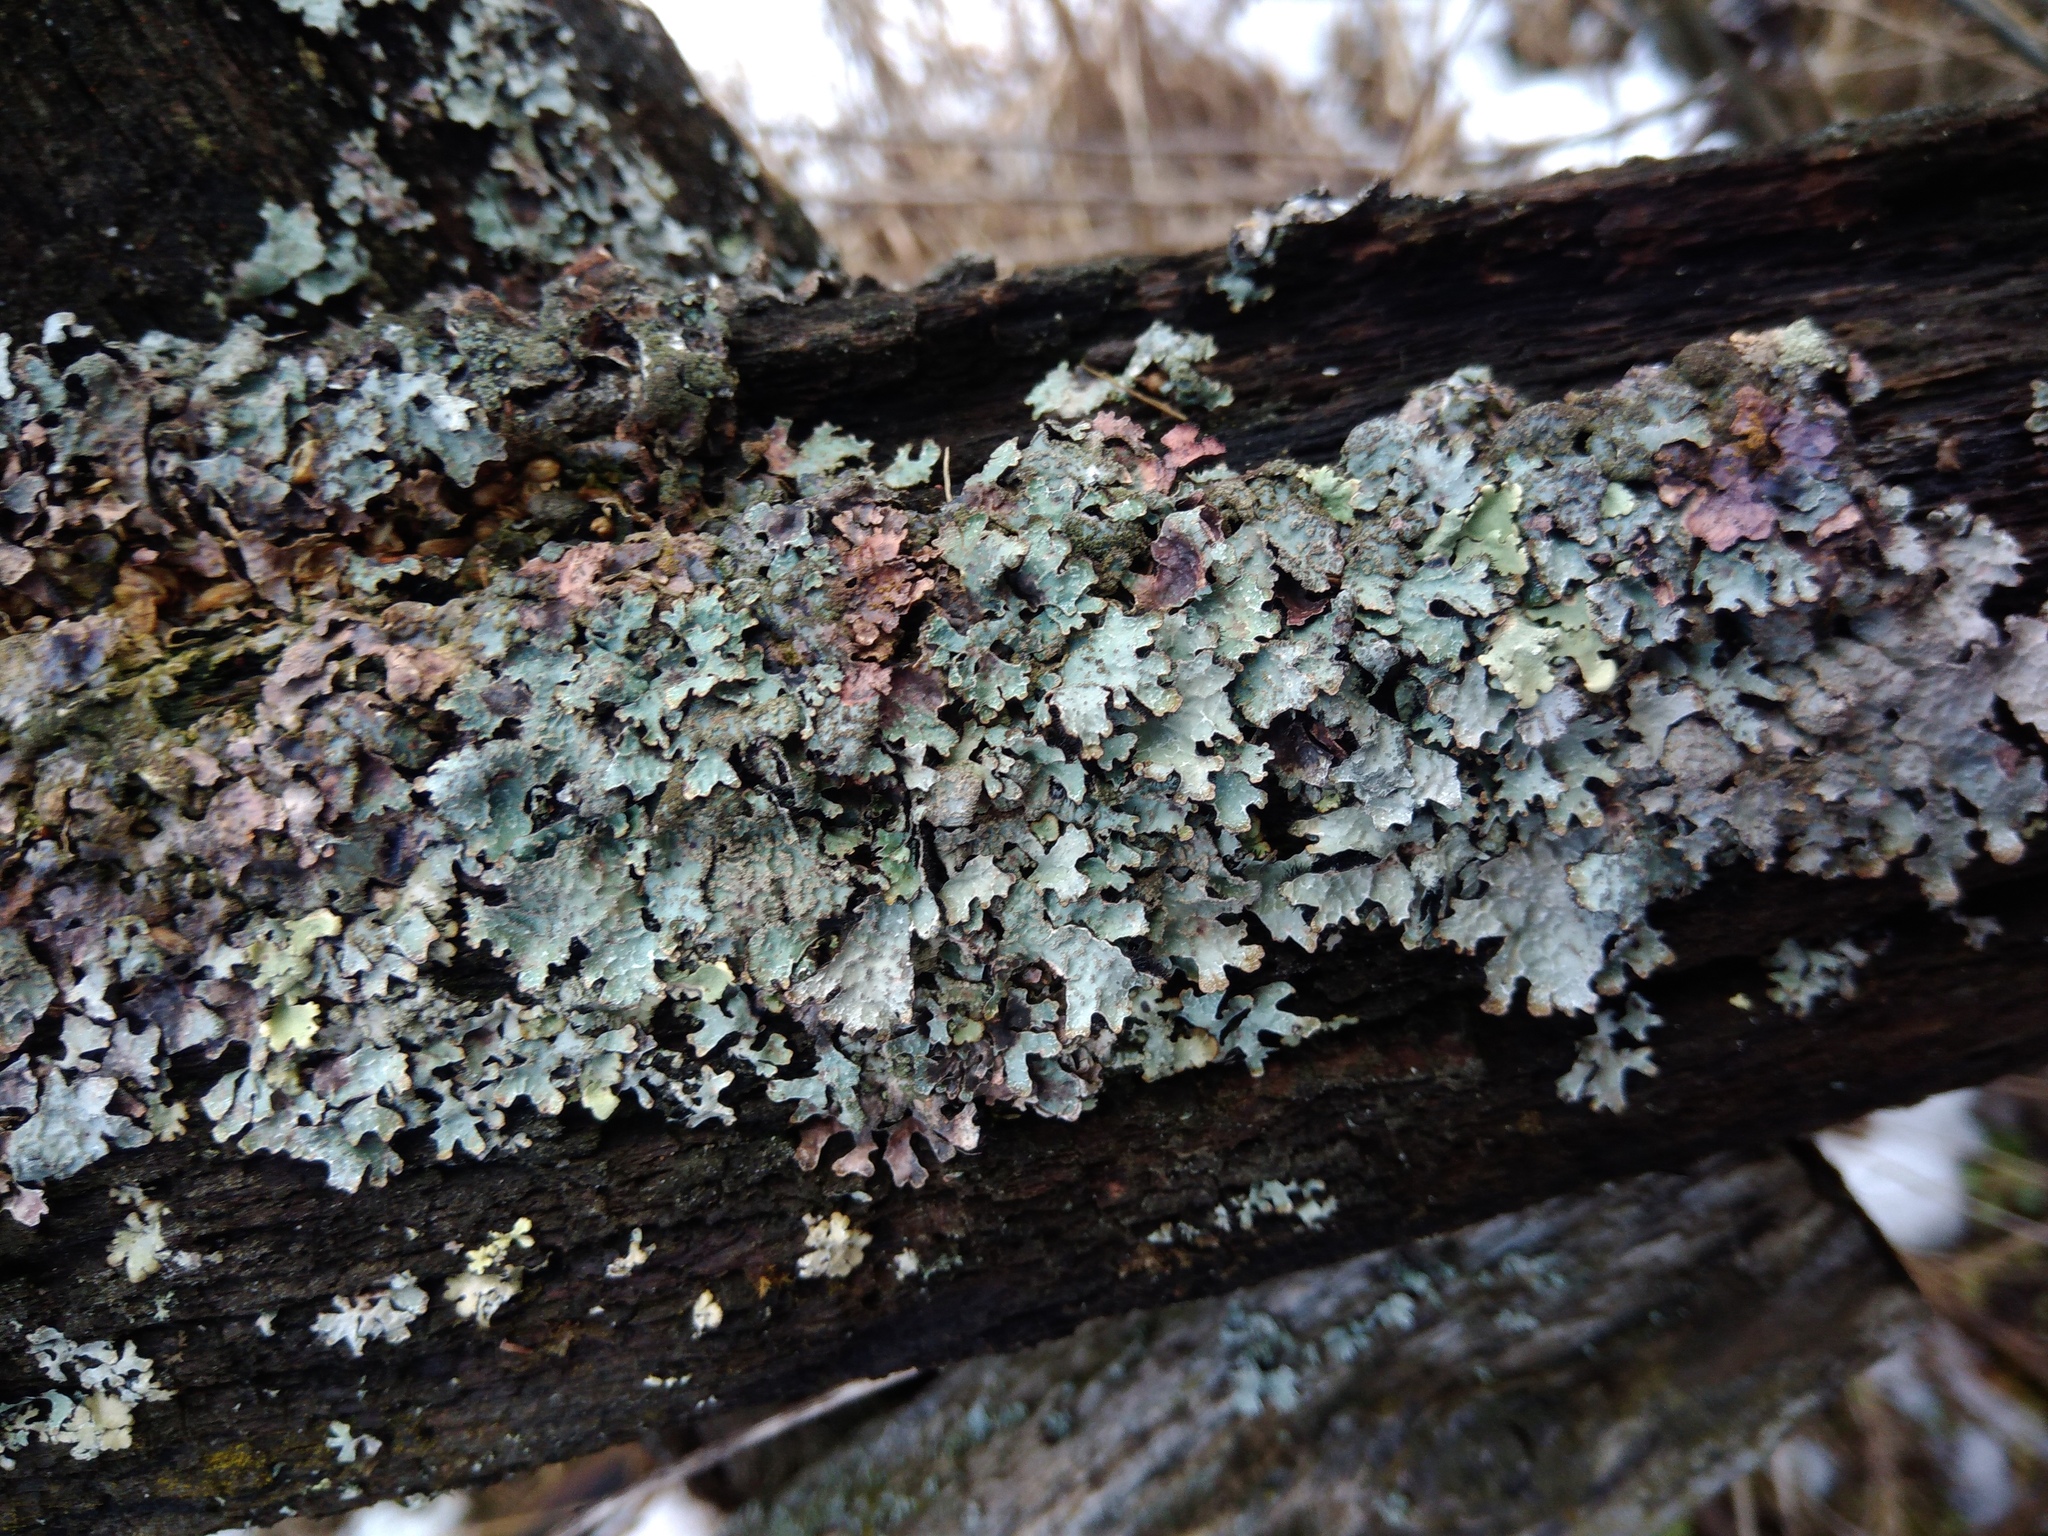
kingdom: Fungi
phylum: Ascomycota
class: Lecanoromycetes
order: Lecanorales
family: Parmeliaceae
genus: Parmelia
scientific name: Parmelia sulcata
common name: Netted shield lichen
